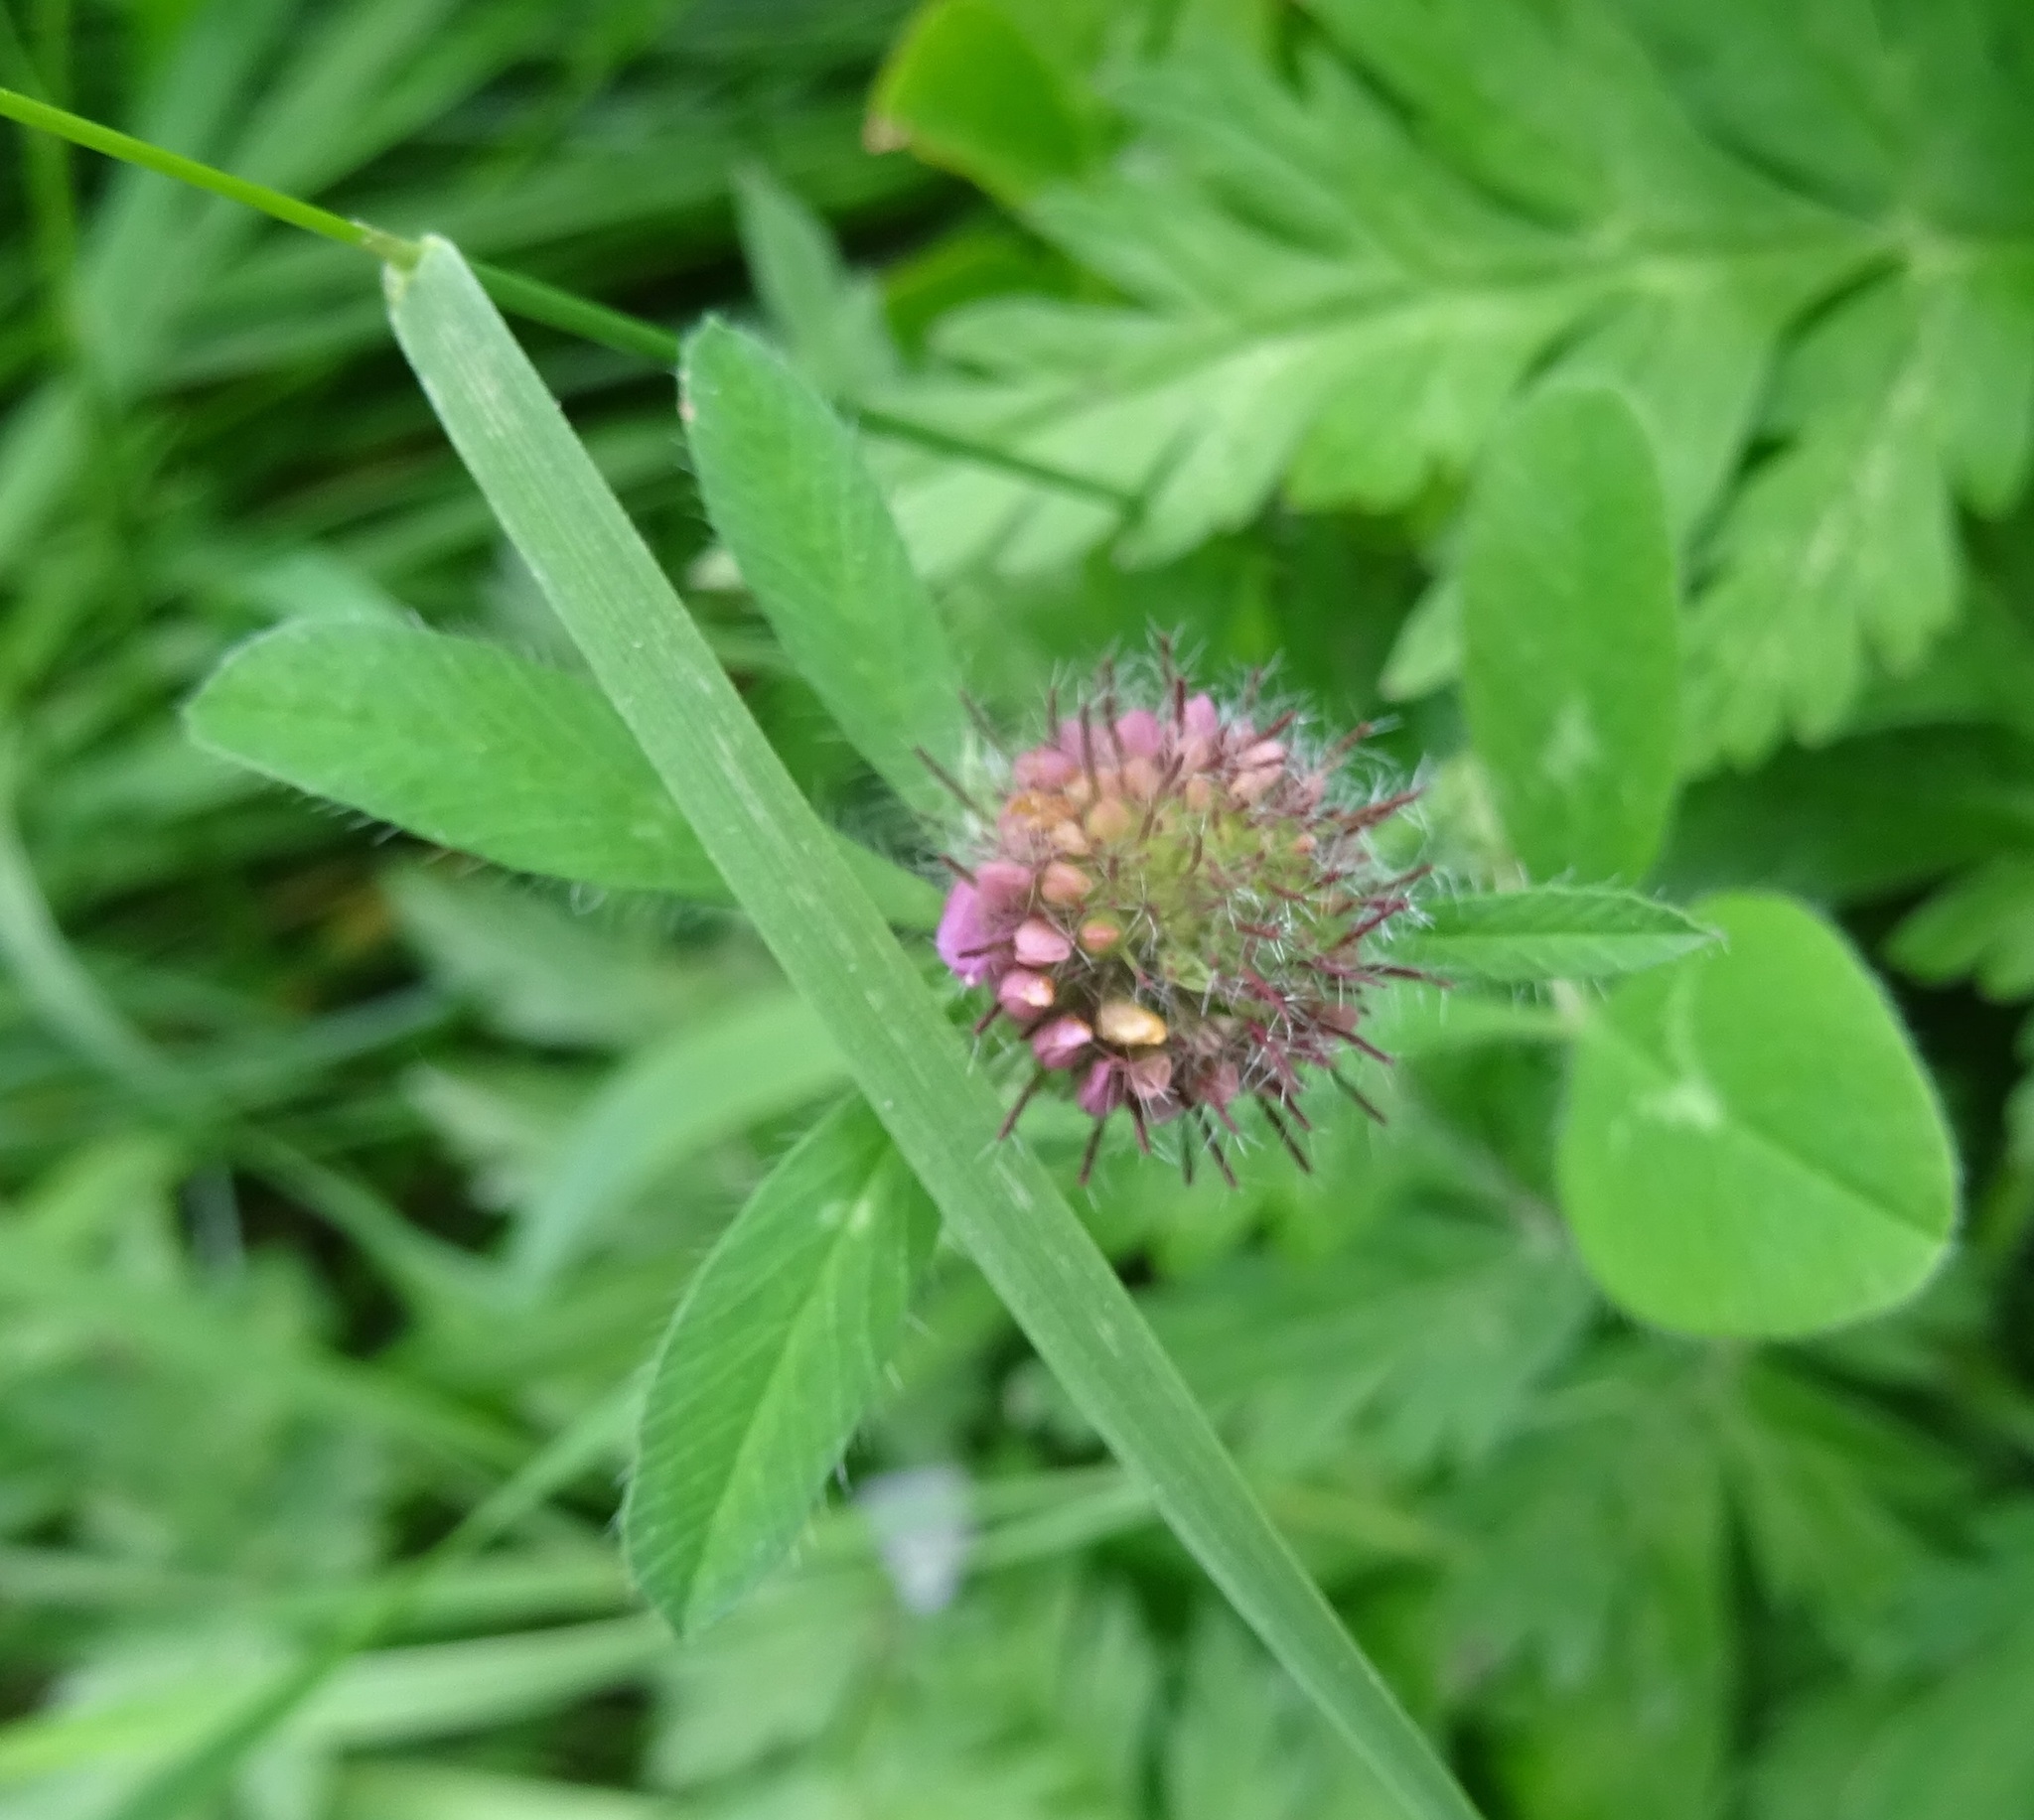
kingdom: Plantae
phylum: Tracheophyta
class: Magnoliopsida
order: Fabales
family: Fabaceae
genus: Trifolium
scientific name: Trifolium pratense
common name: Red clover
